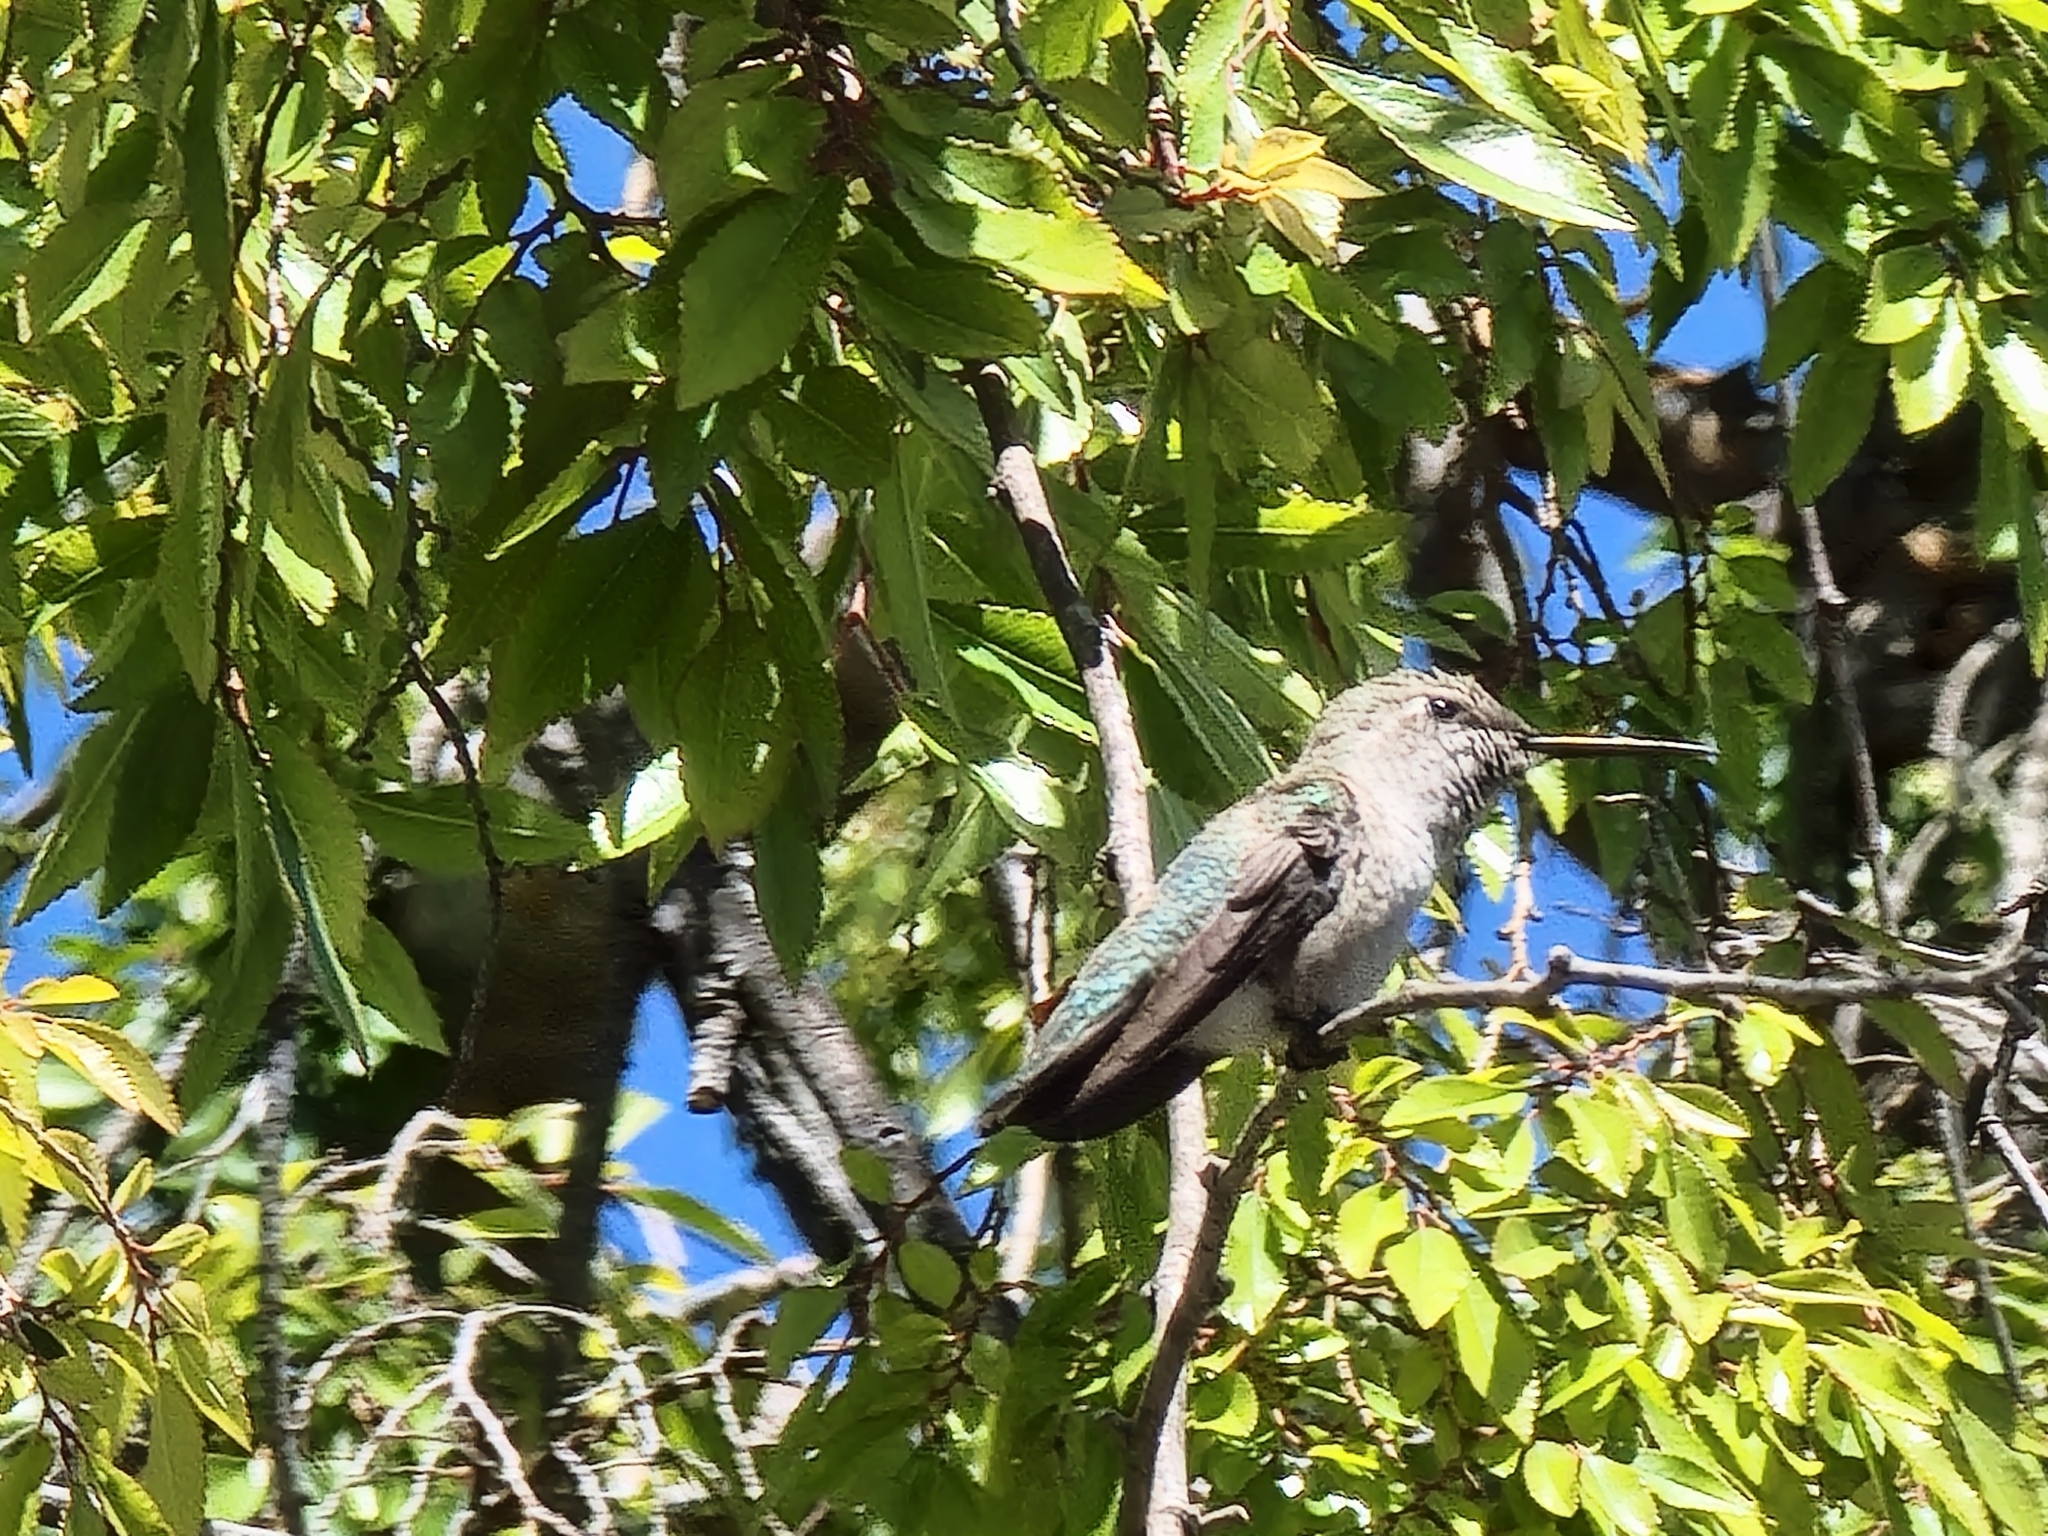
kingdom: Animalia
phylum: Chordata
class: Aves
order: Apodiformes
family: Trochilidae
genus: Calypte
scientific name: Calypte anna
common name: Anna's hummingbird
